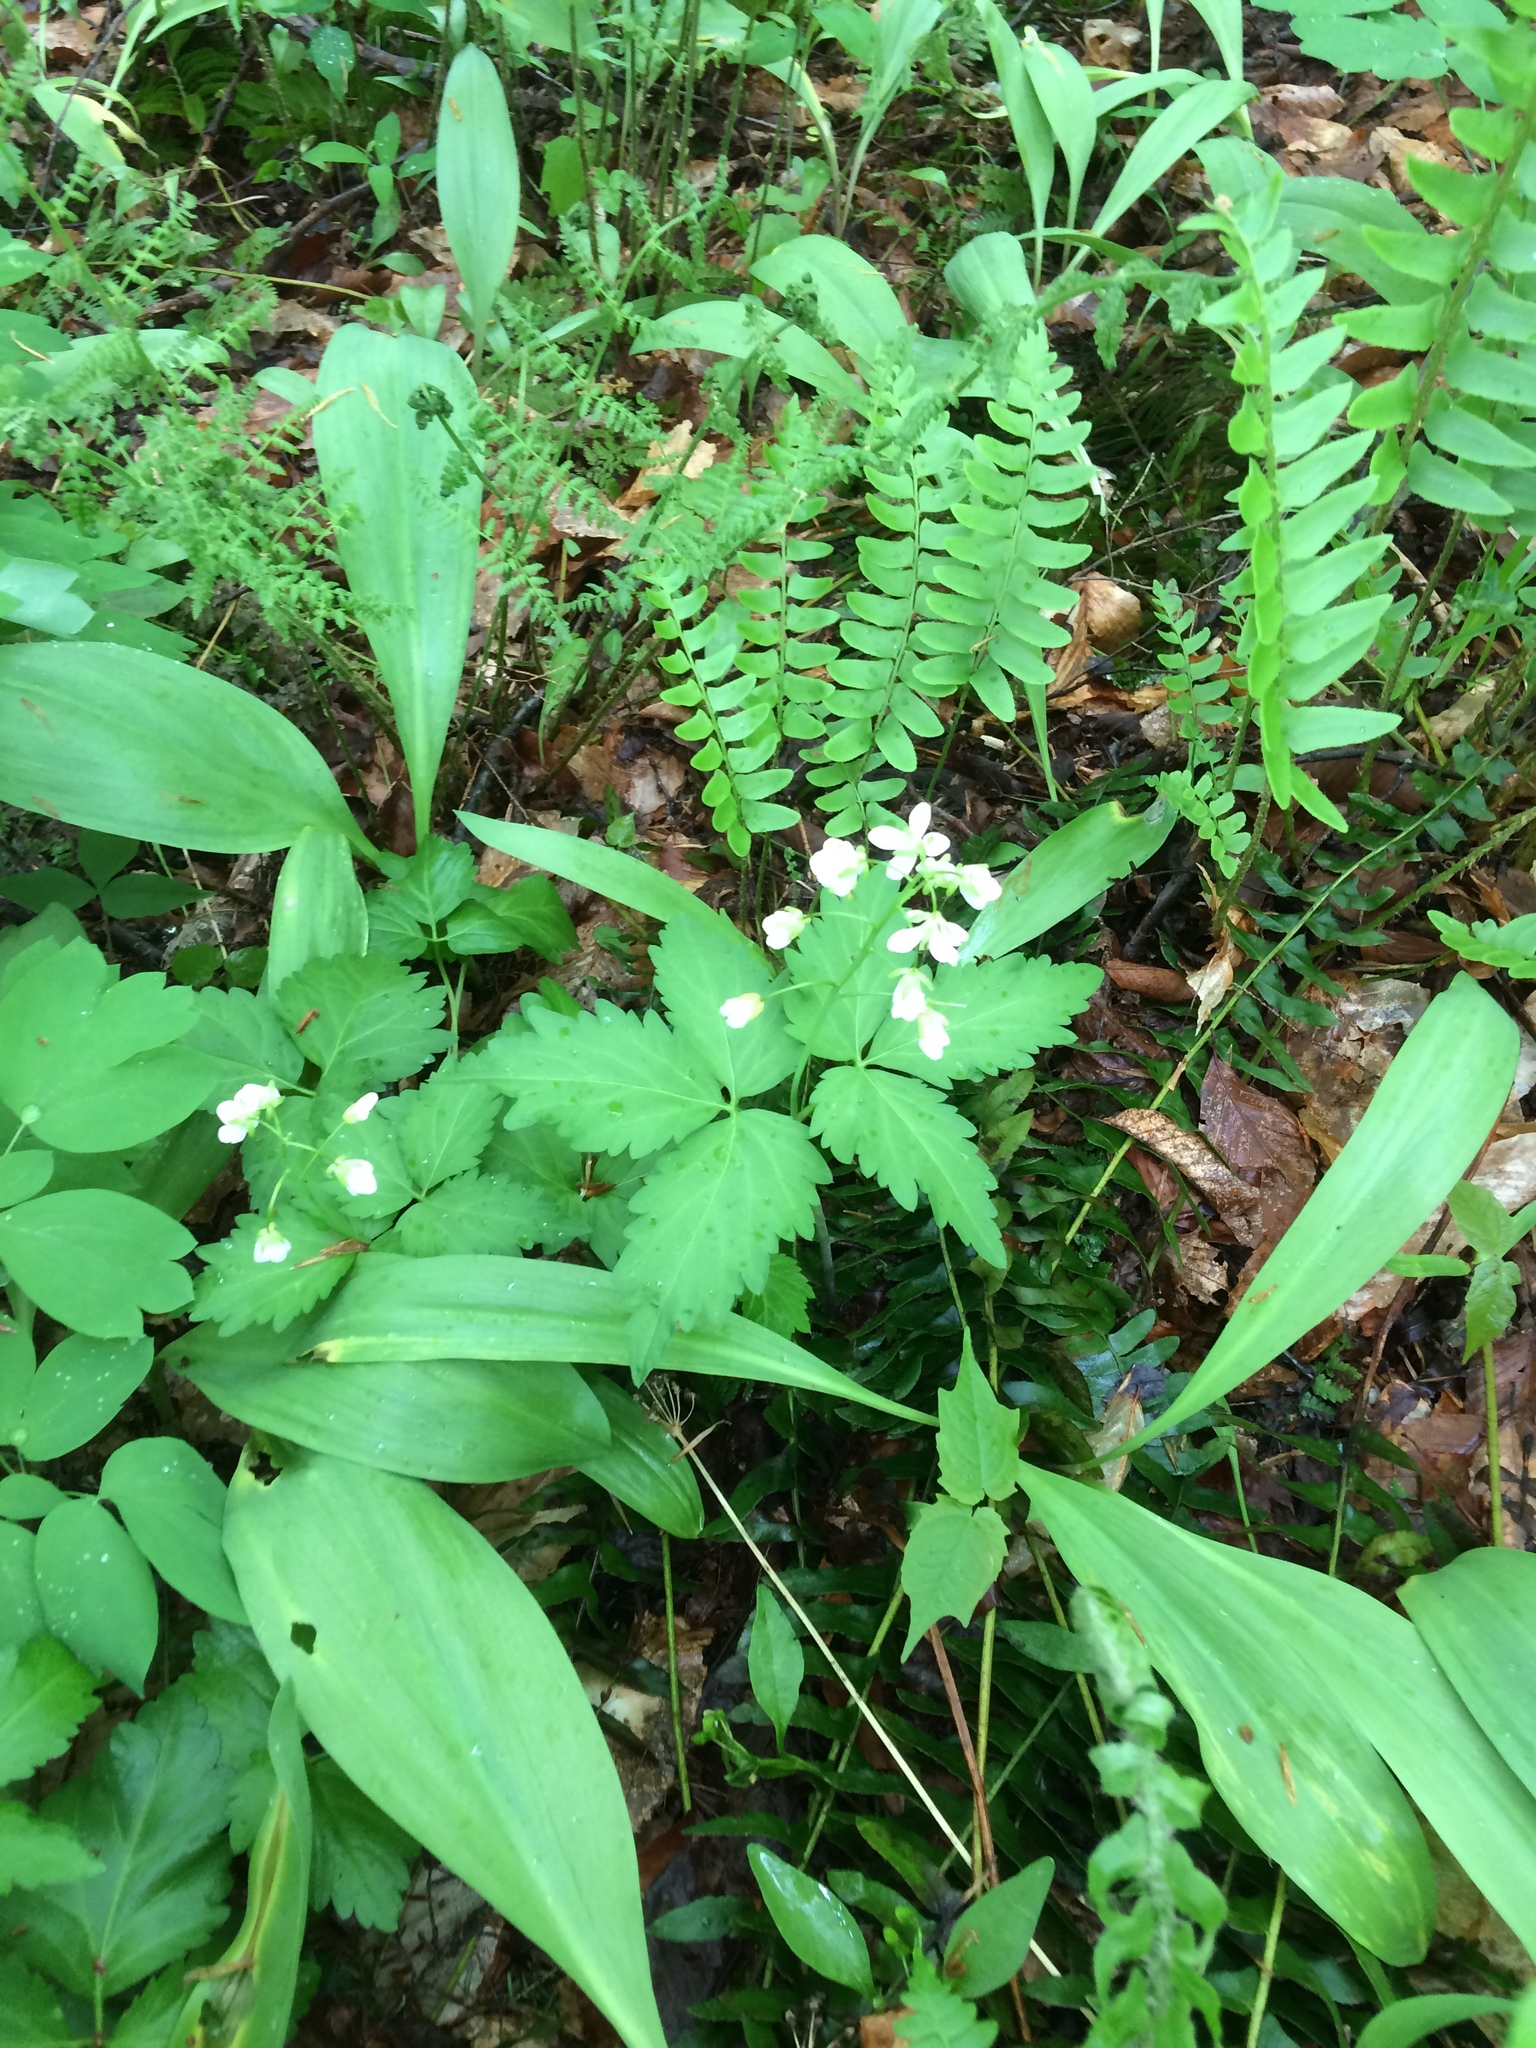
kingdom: Plantae
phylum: Tracheophyta
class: Magnoliopsida
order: Brassicales
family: Brassicaceae
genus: Cardamine
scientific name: Cardamine diphylla
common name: Broad-leaved toothwort
